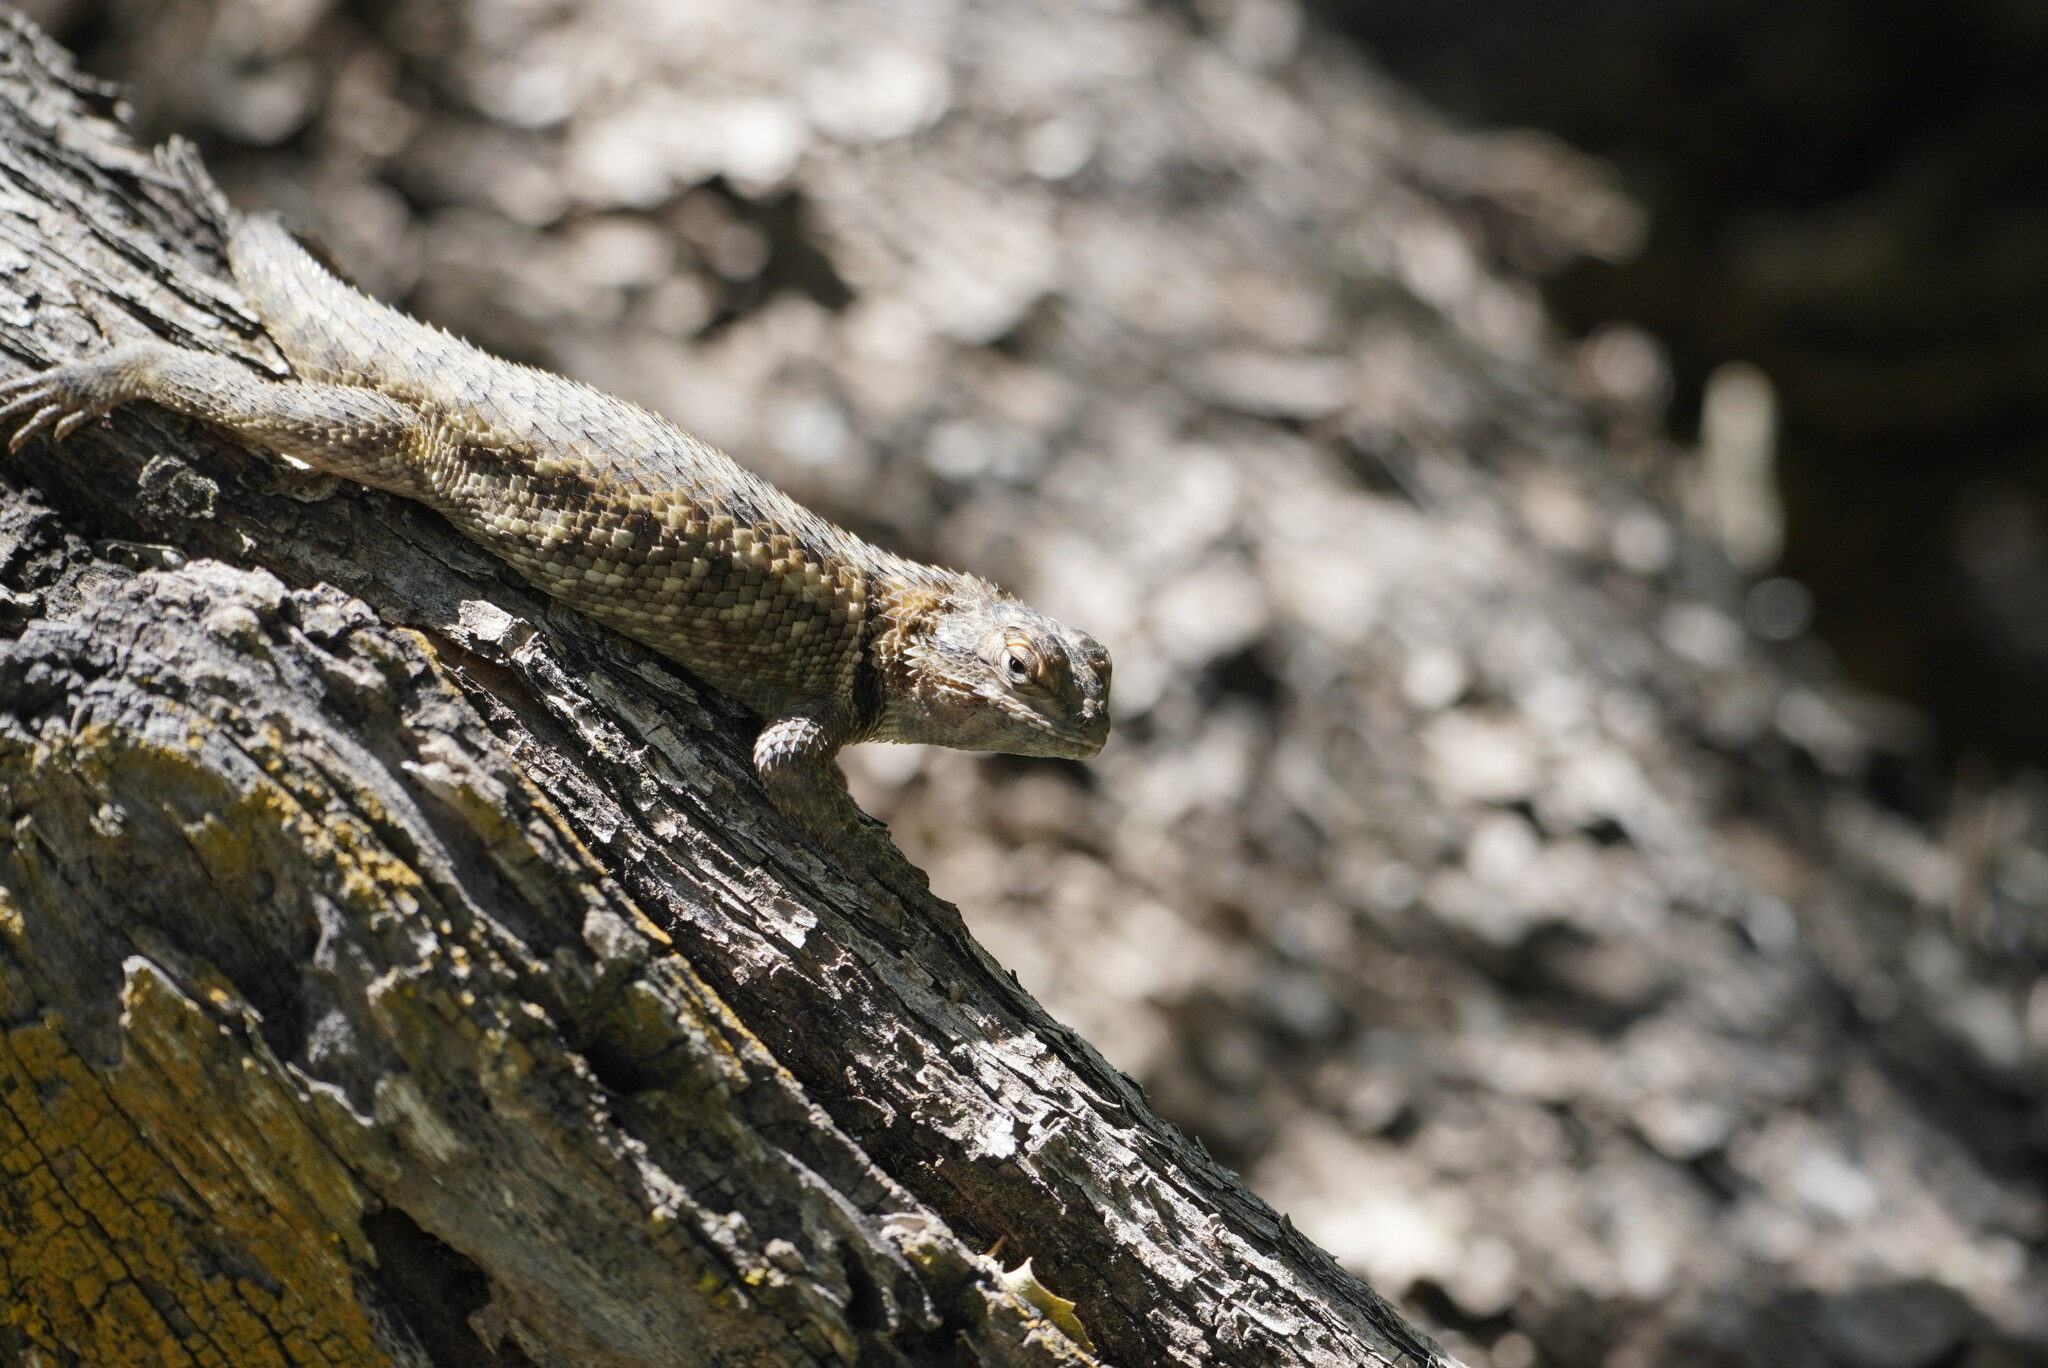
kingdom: Animalia
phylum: Chordata
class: Squamata
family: Phrynosomatidae
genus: Sceloporus
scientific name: Sceloporus magister
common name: Desert spiny lizard
